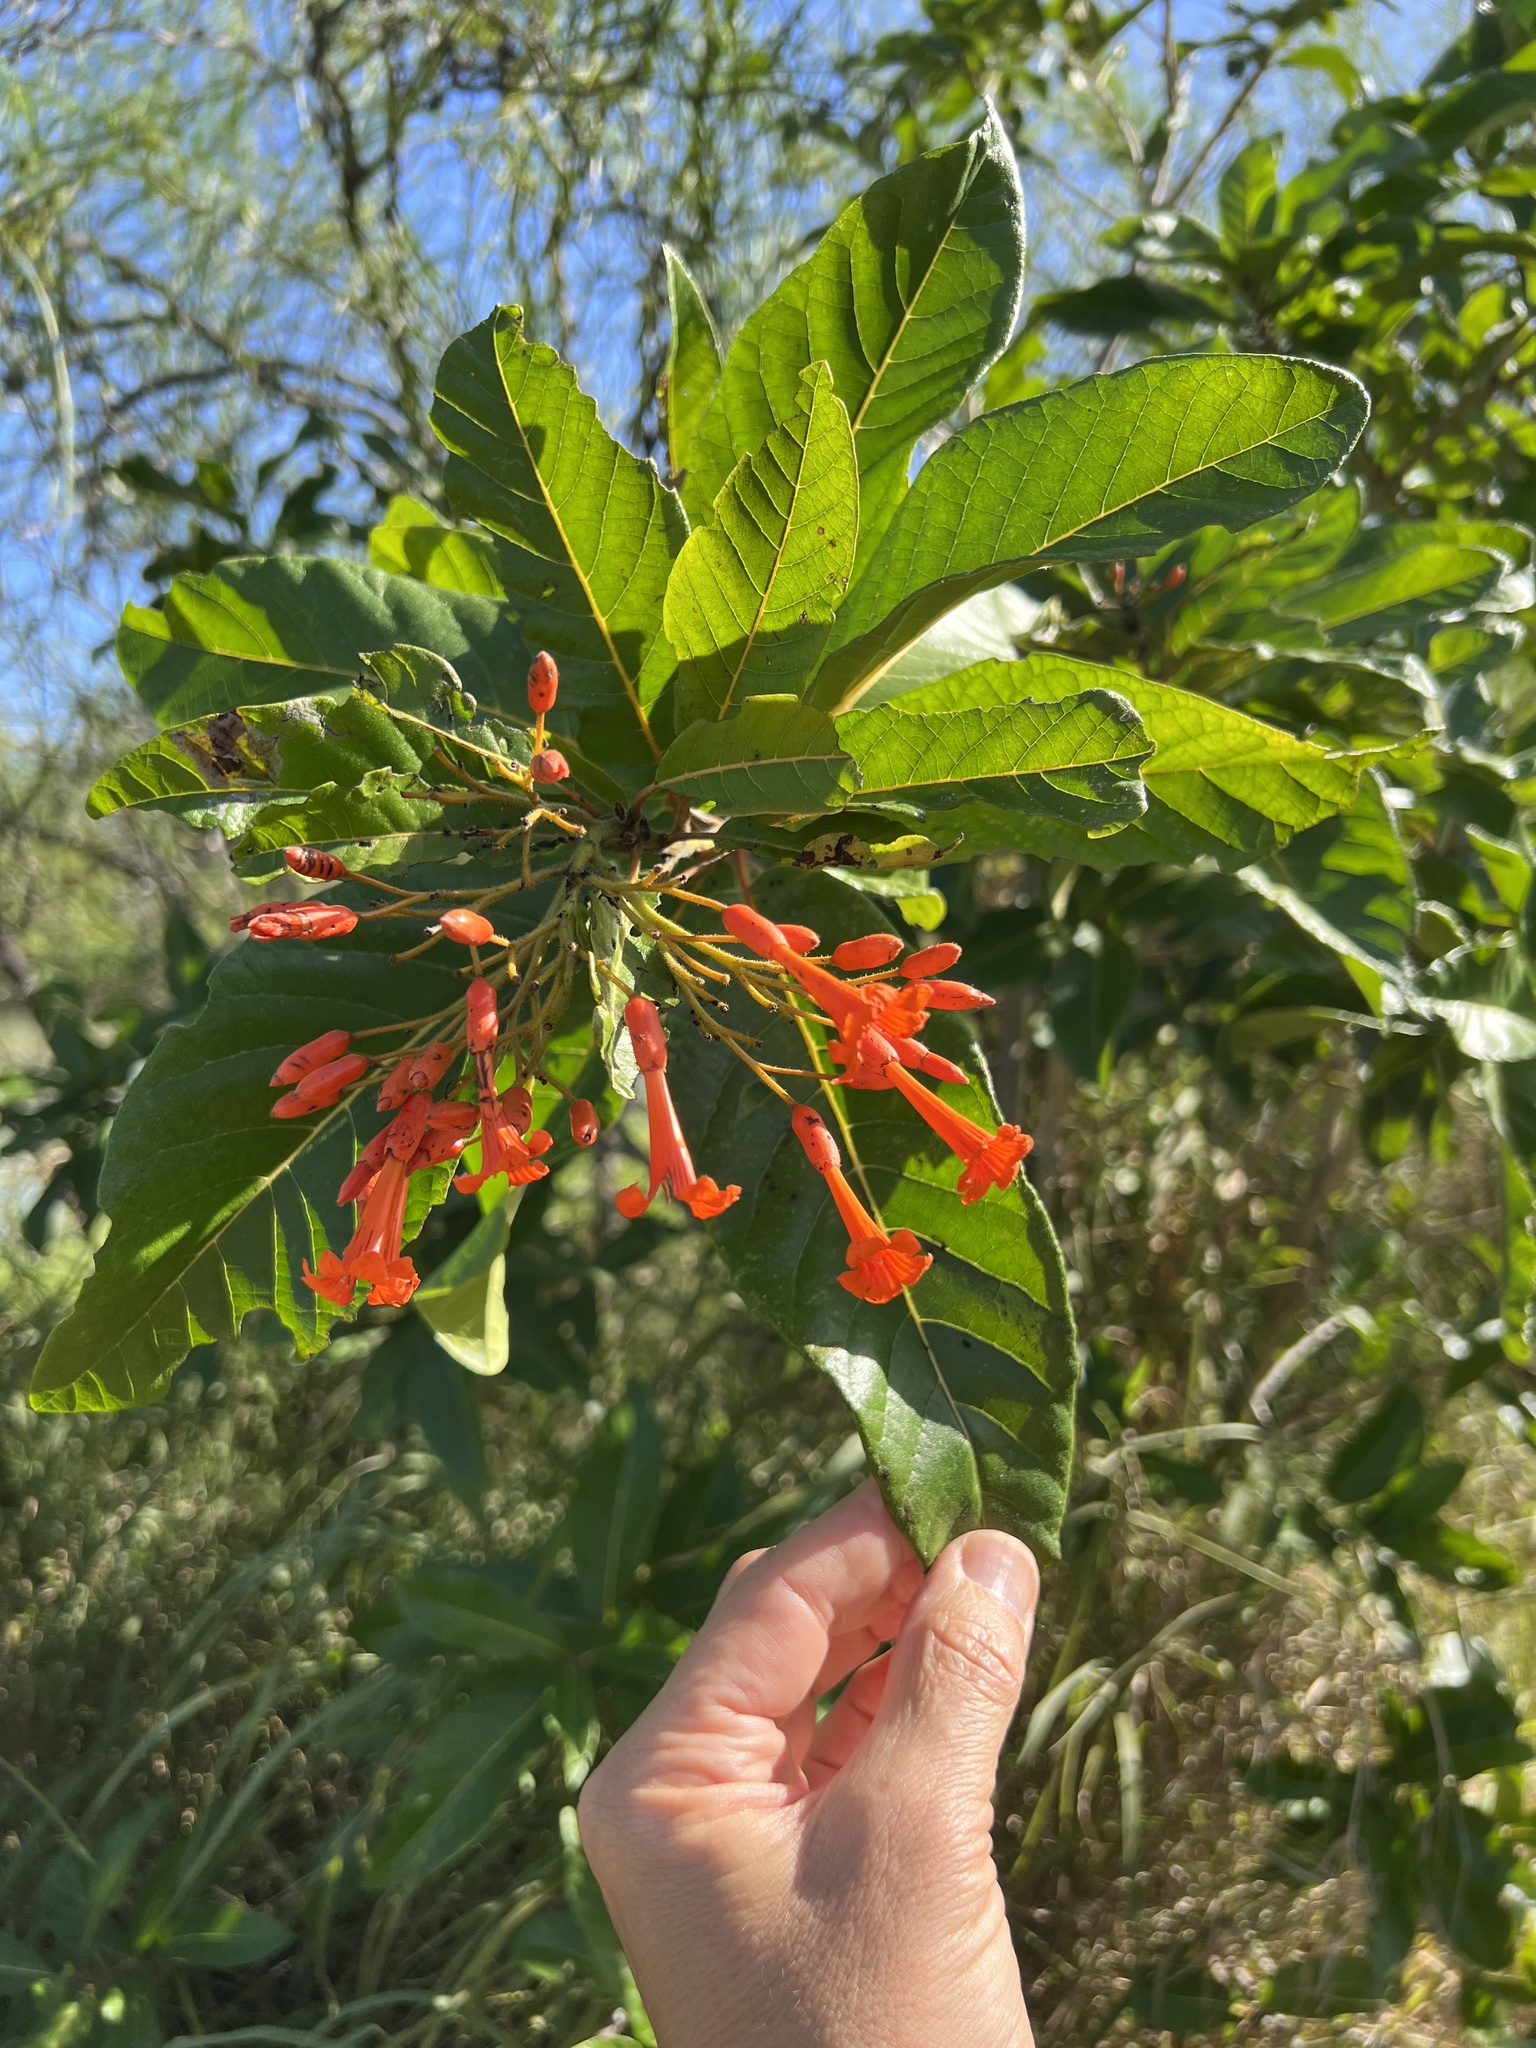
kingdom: Plantae
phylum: Tracheophyta
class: Magnoliopsida
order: Boraginales
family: Cordiaceae
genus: Cordia
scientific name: Cordia rickseckeri
